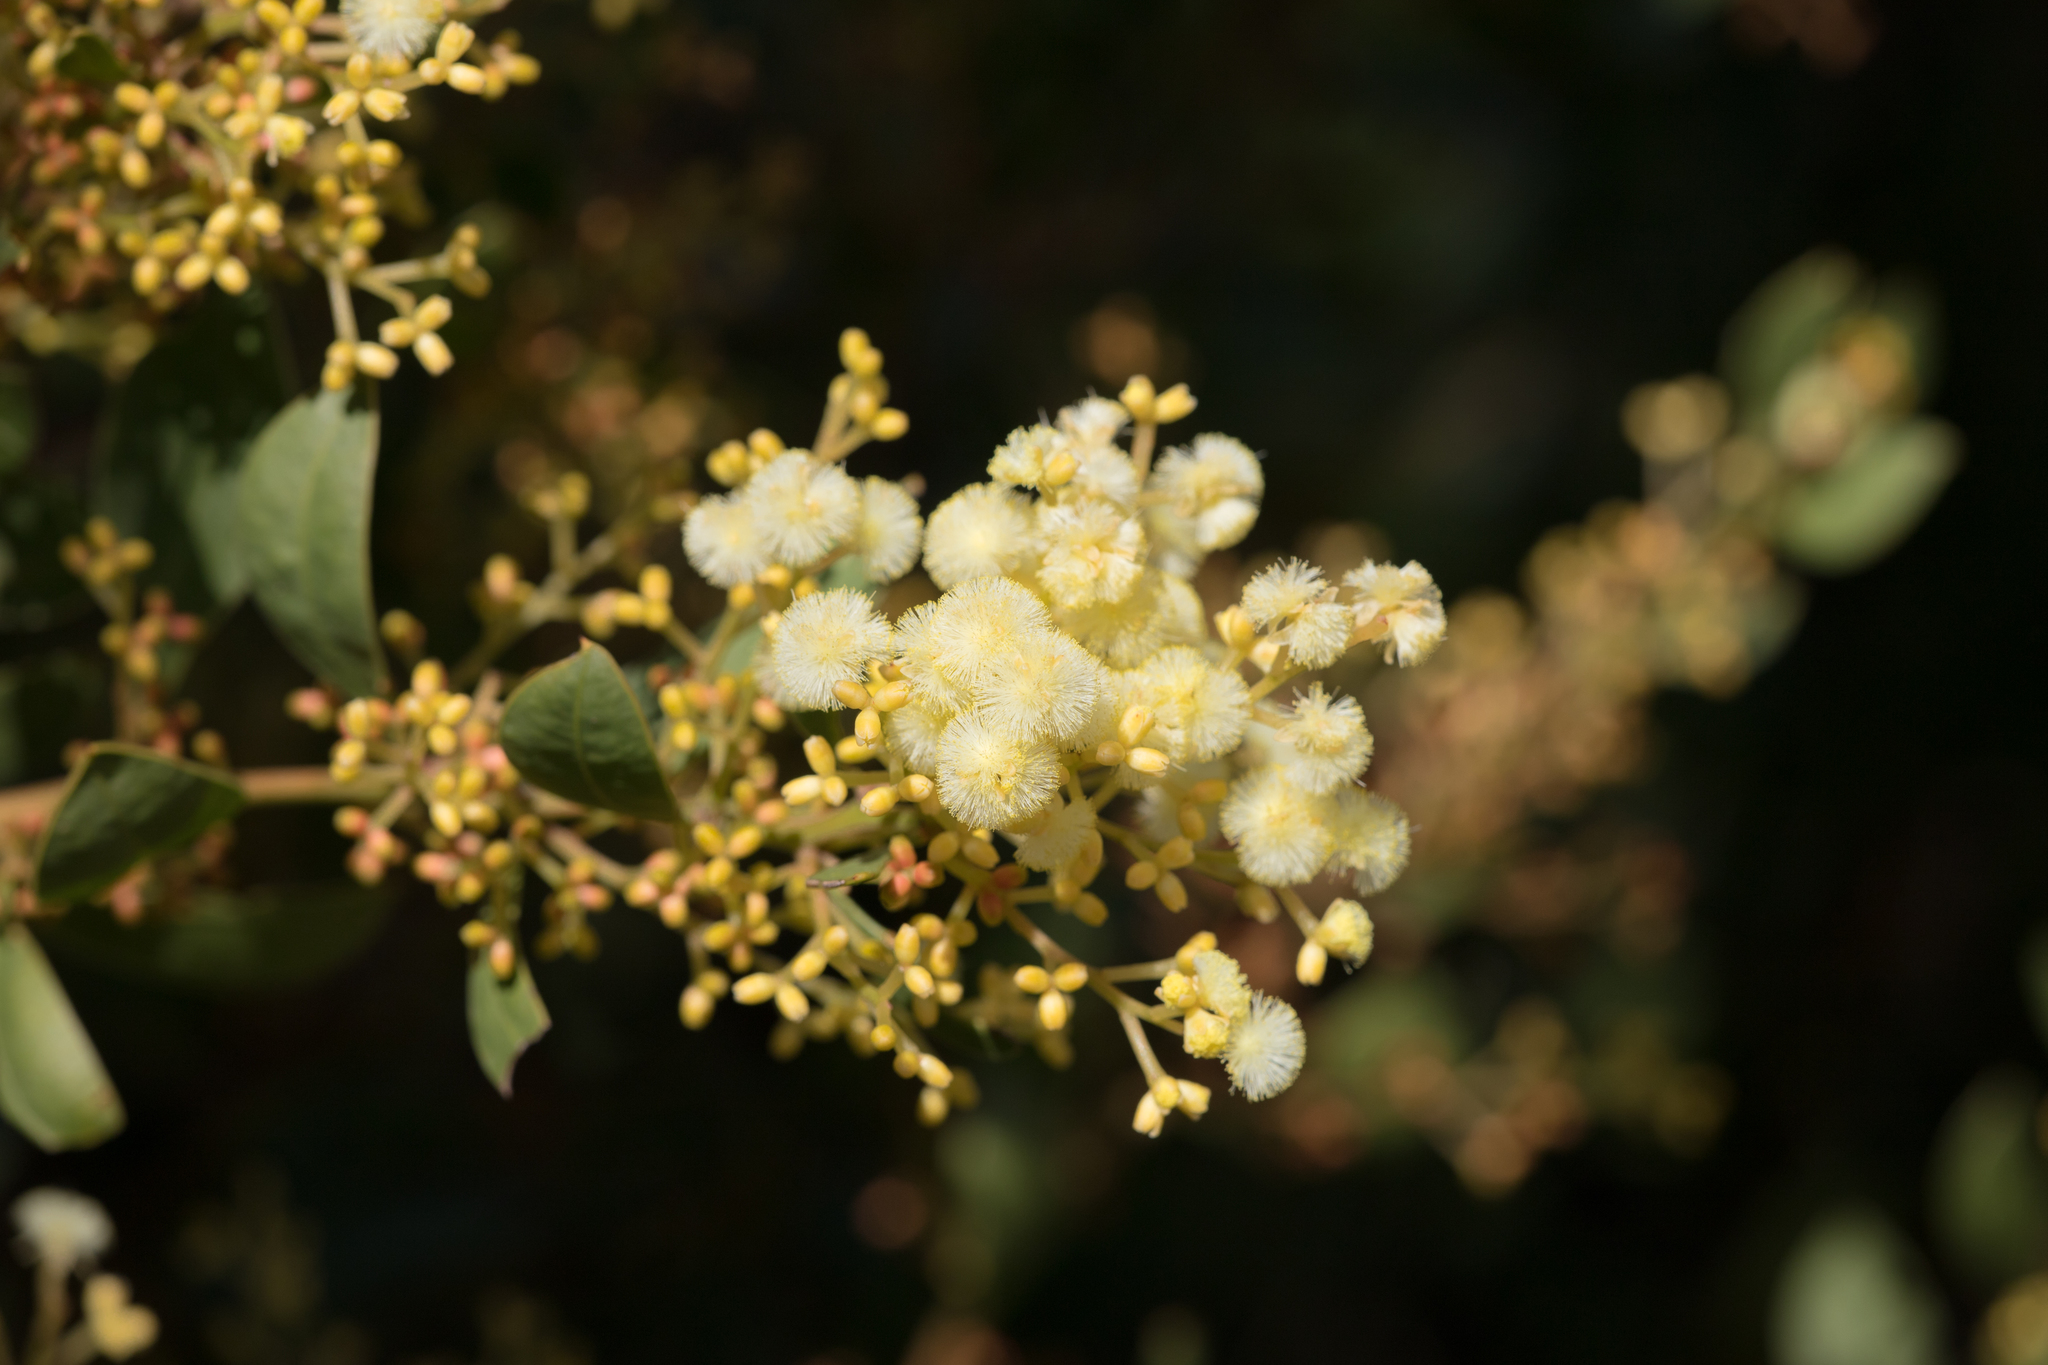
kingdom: Plantae
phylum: Tracheophyta
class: Magnoliopsida
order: Fabales
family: Fabaceae
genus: Acacia
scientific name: Acacia myrtifolia
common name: Myrtle wattle
